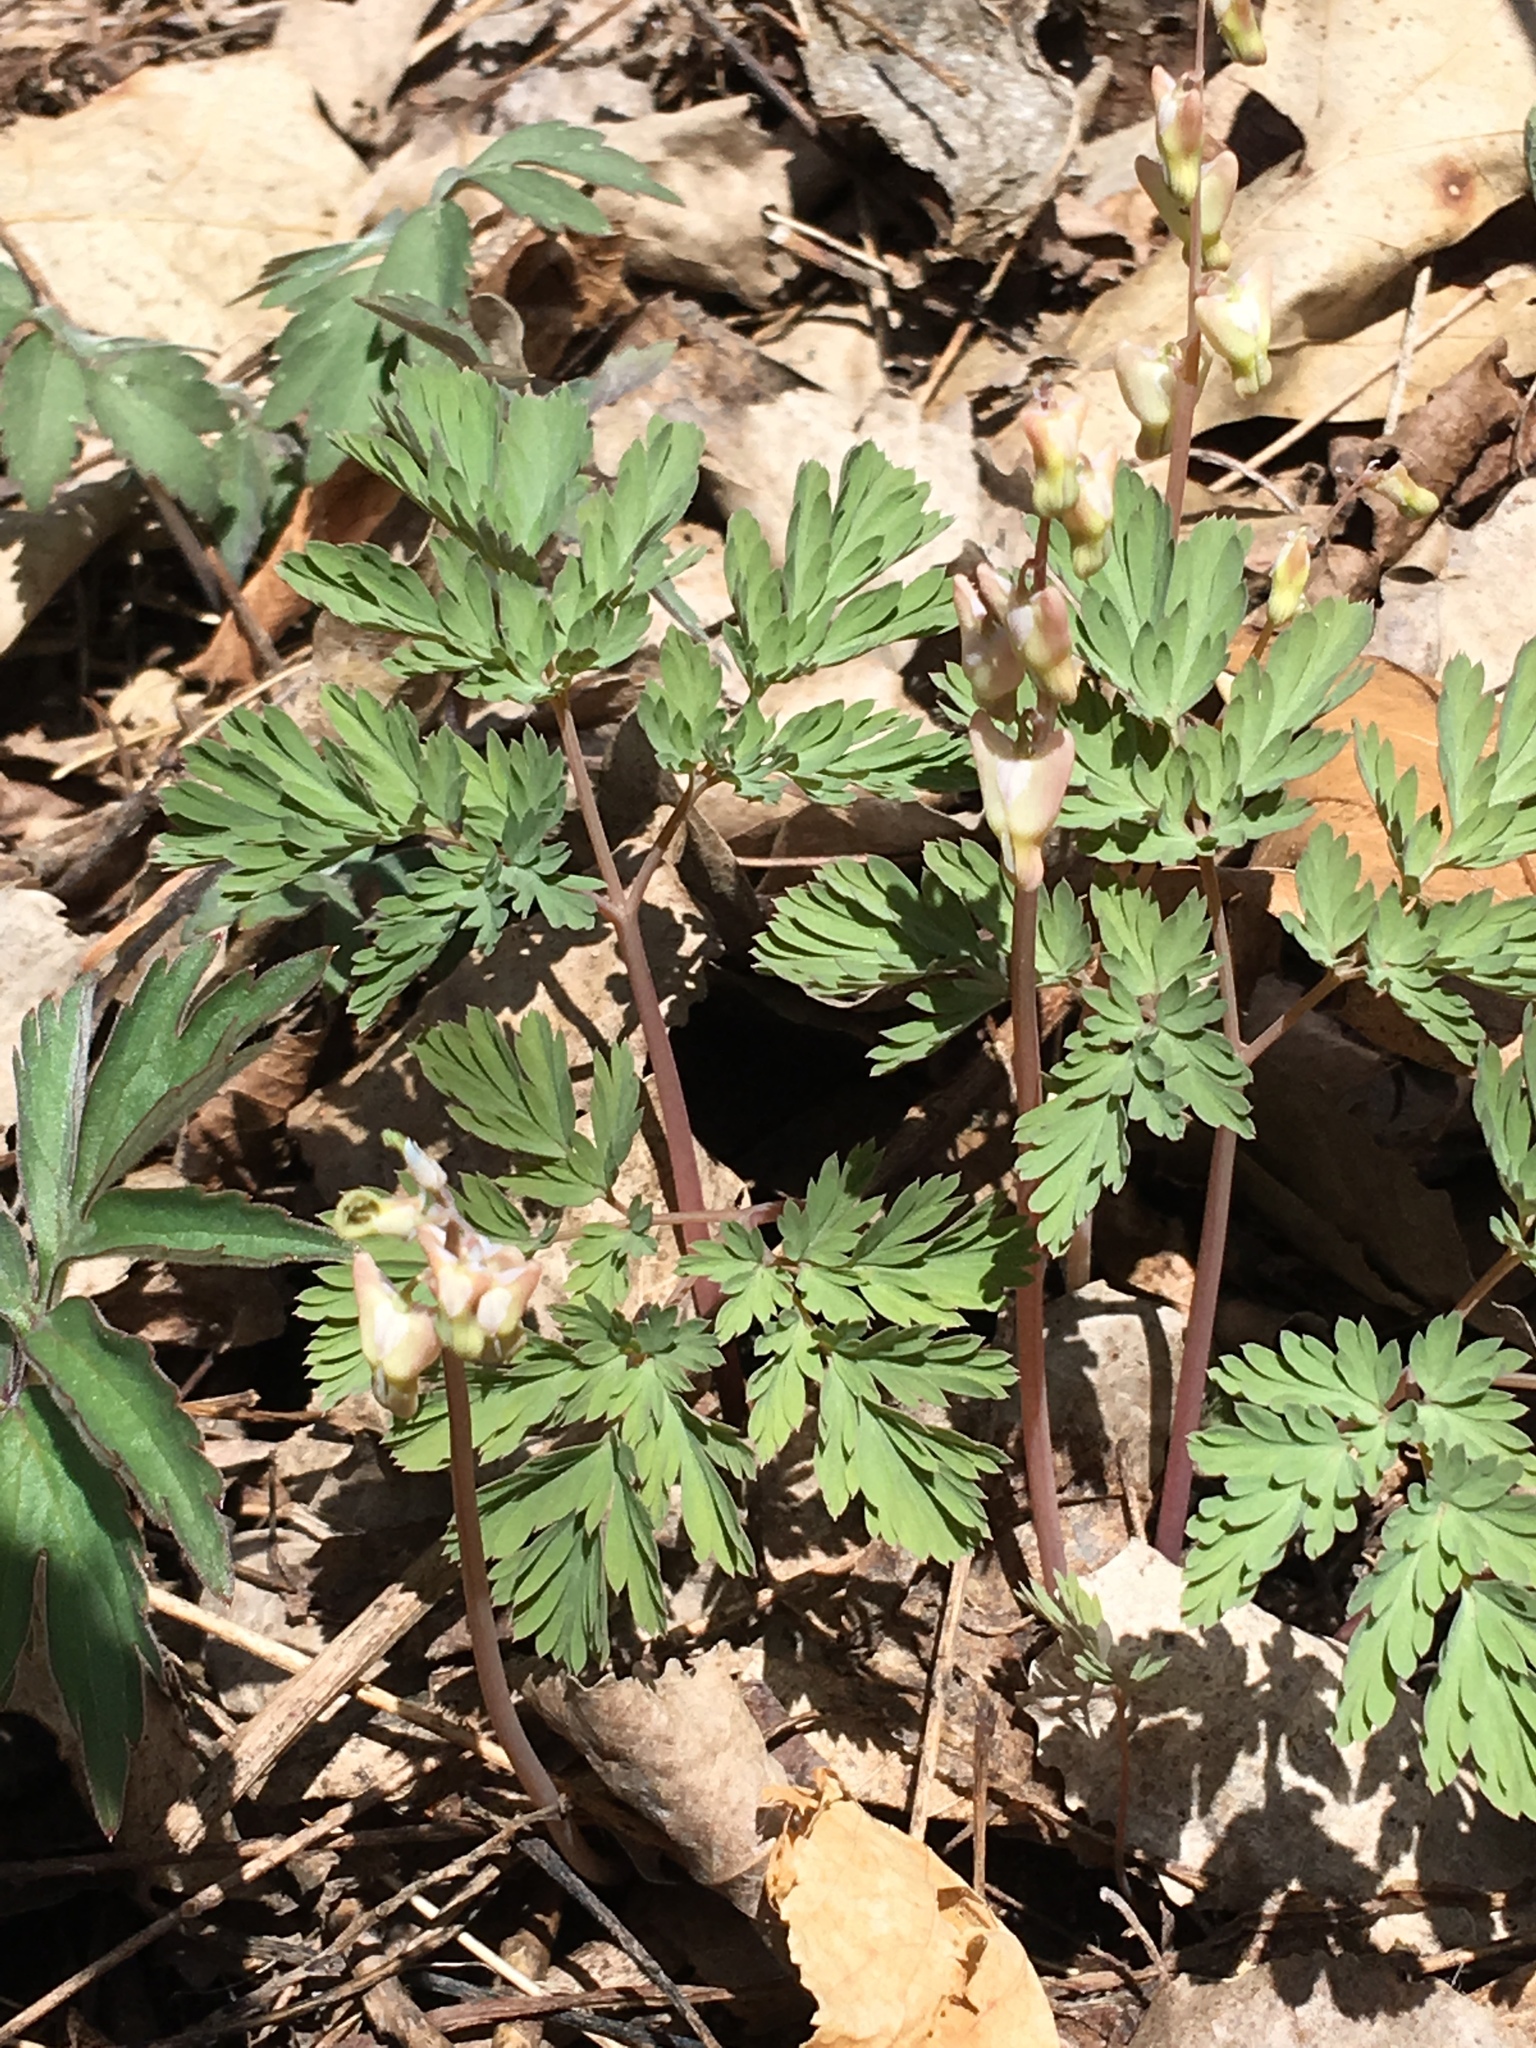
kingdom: Plantae
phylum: Tracheophyta
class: Magnoliopsida
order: Ranunculales
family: Papaveraceae
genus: Dicentra
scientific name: Dicentra cucullaria
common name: Dutchman's breeches
